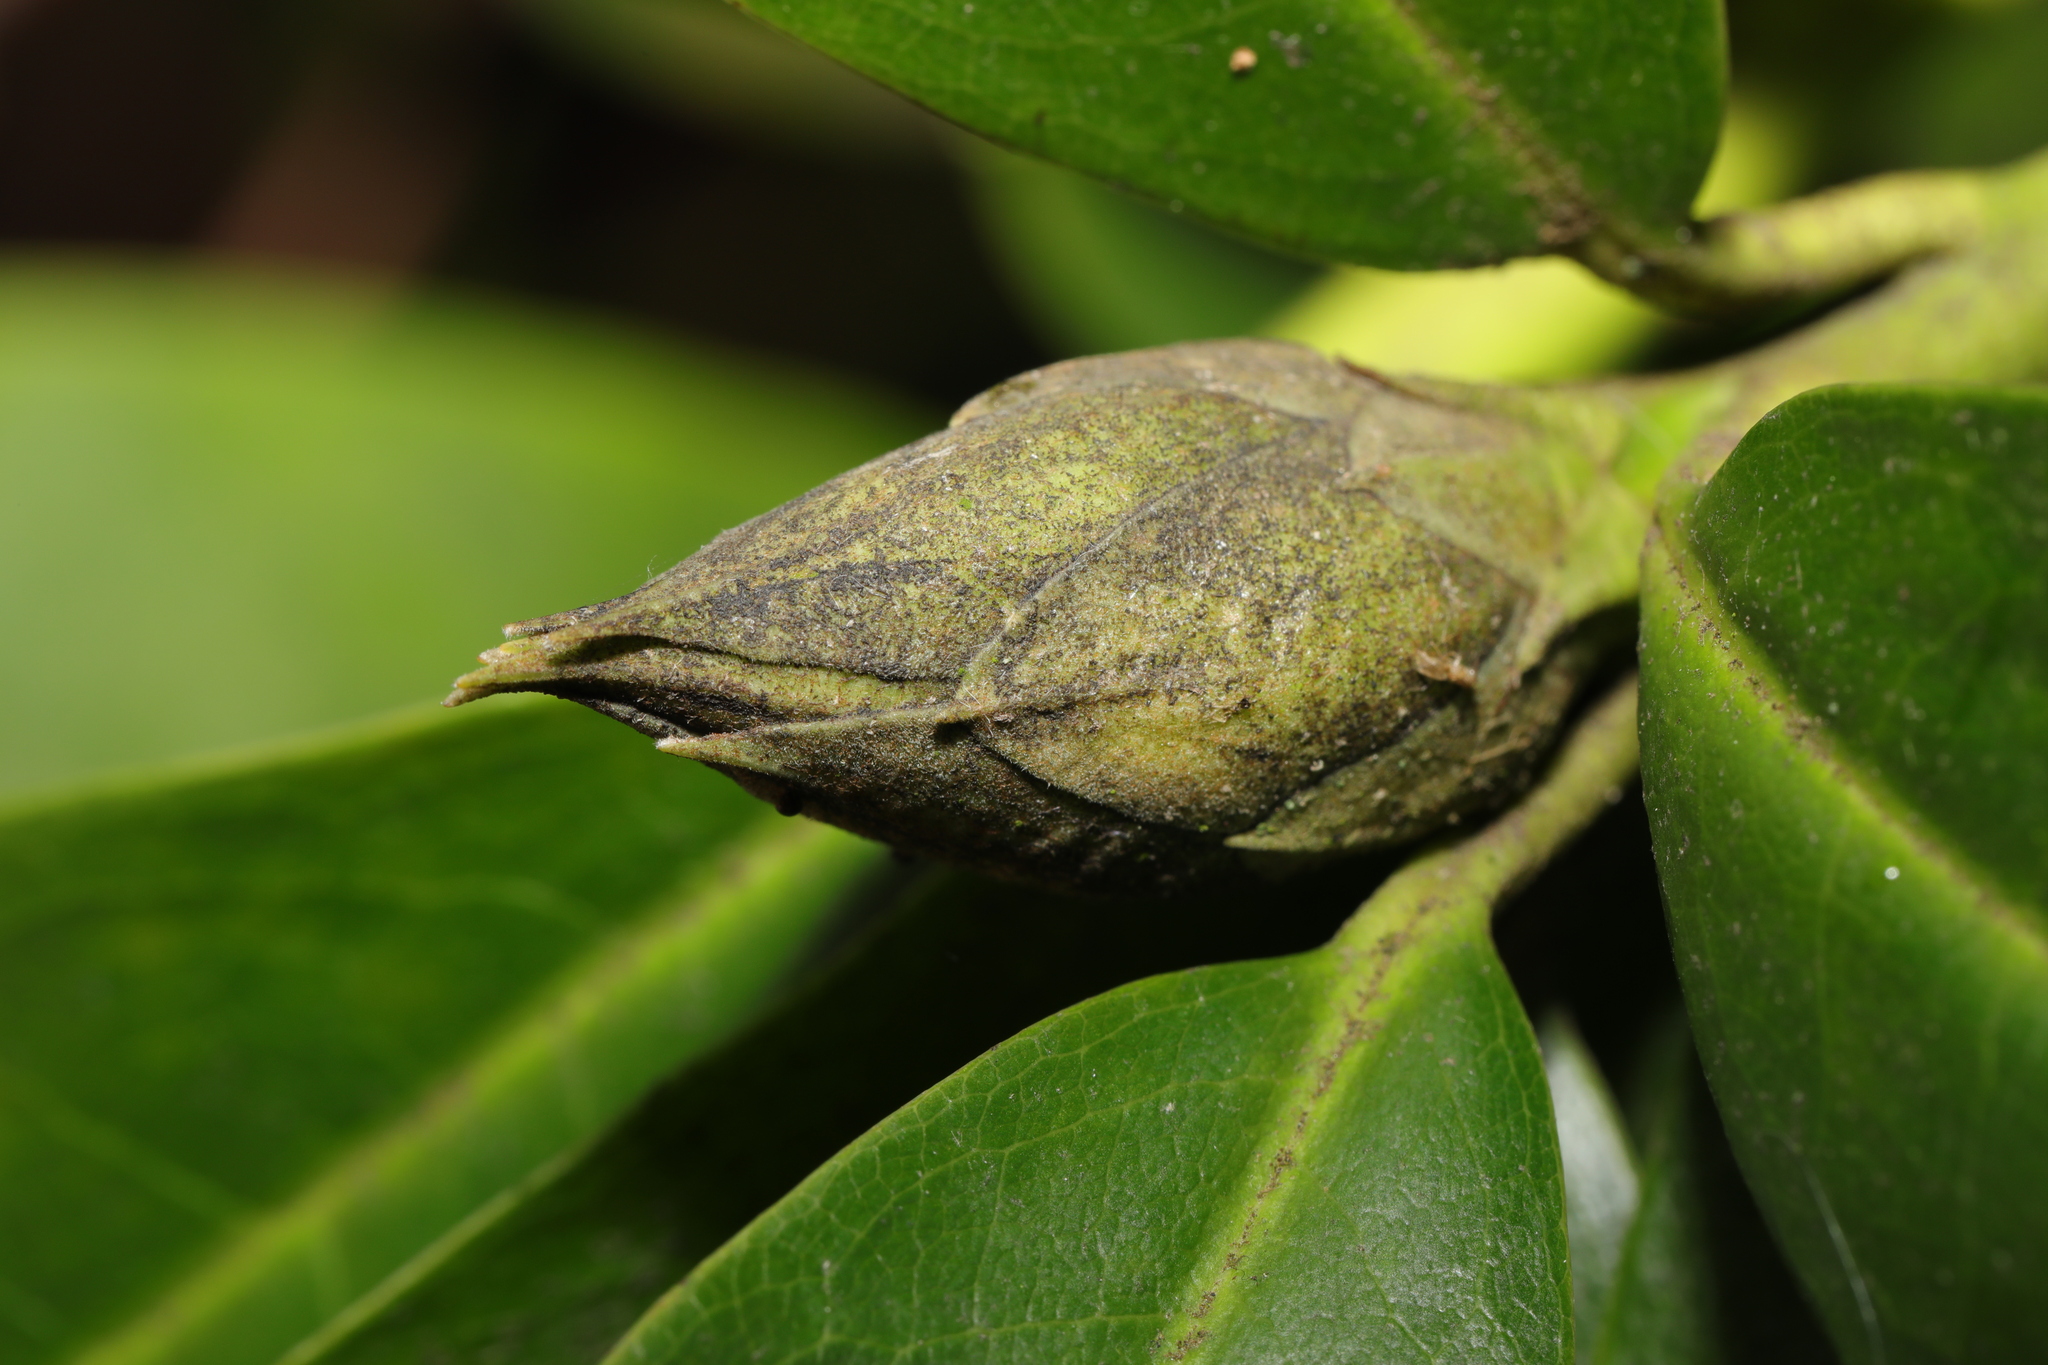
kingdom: Fungi
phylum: Ascomycota
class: Dothideomycetes
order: Pleosporales
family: Melanommataceae
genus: Seifertia
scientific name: Seifertia azaleae
